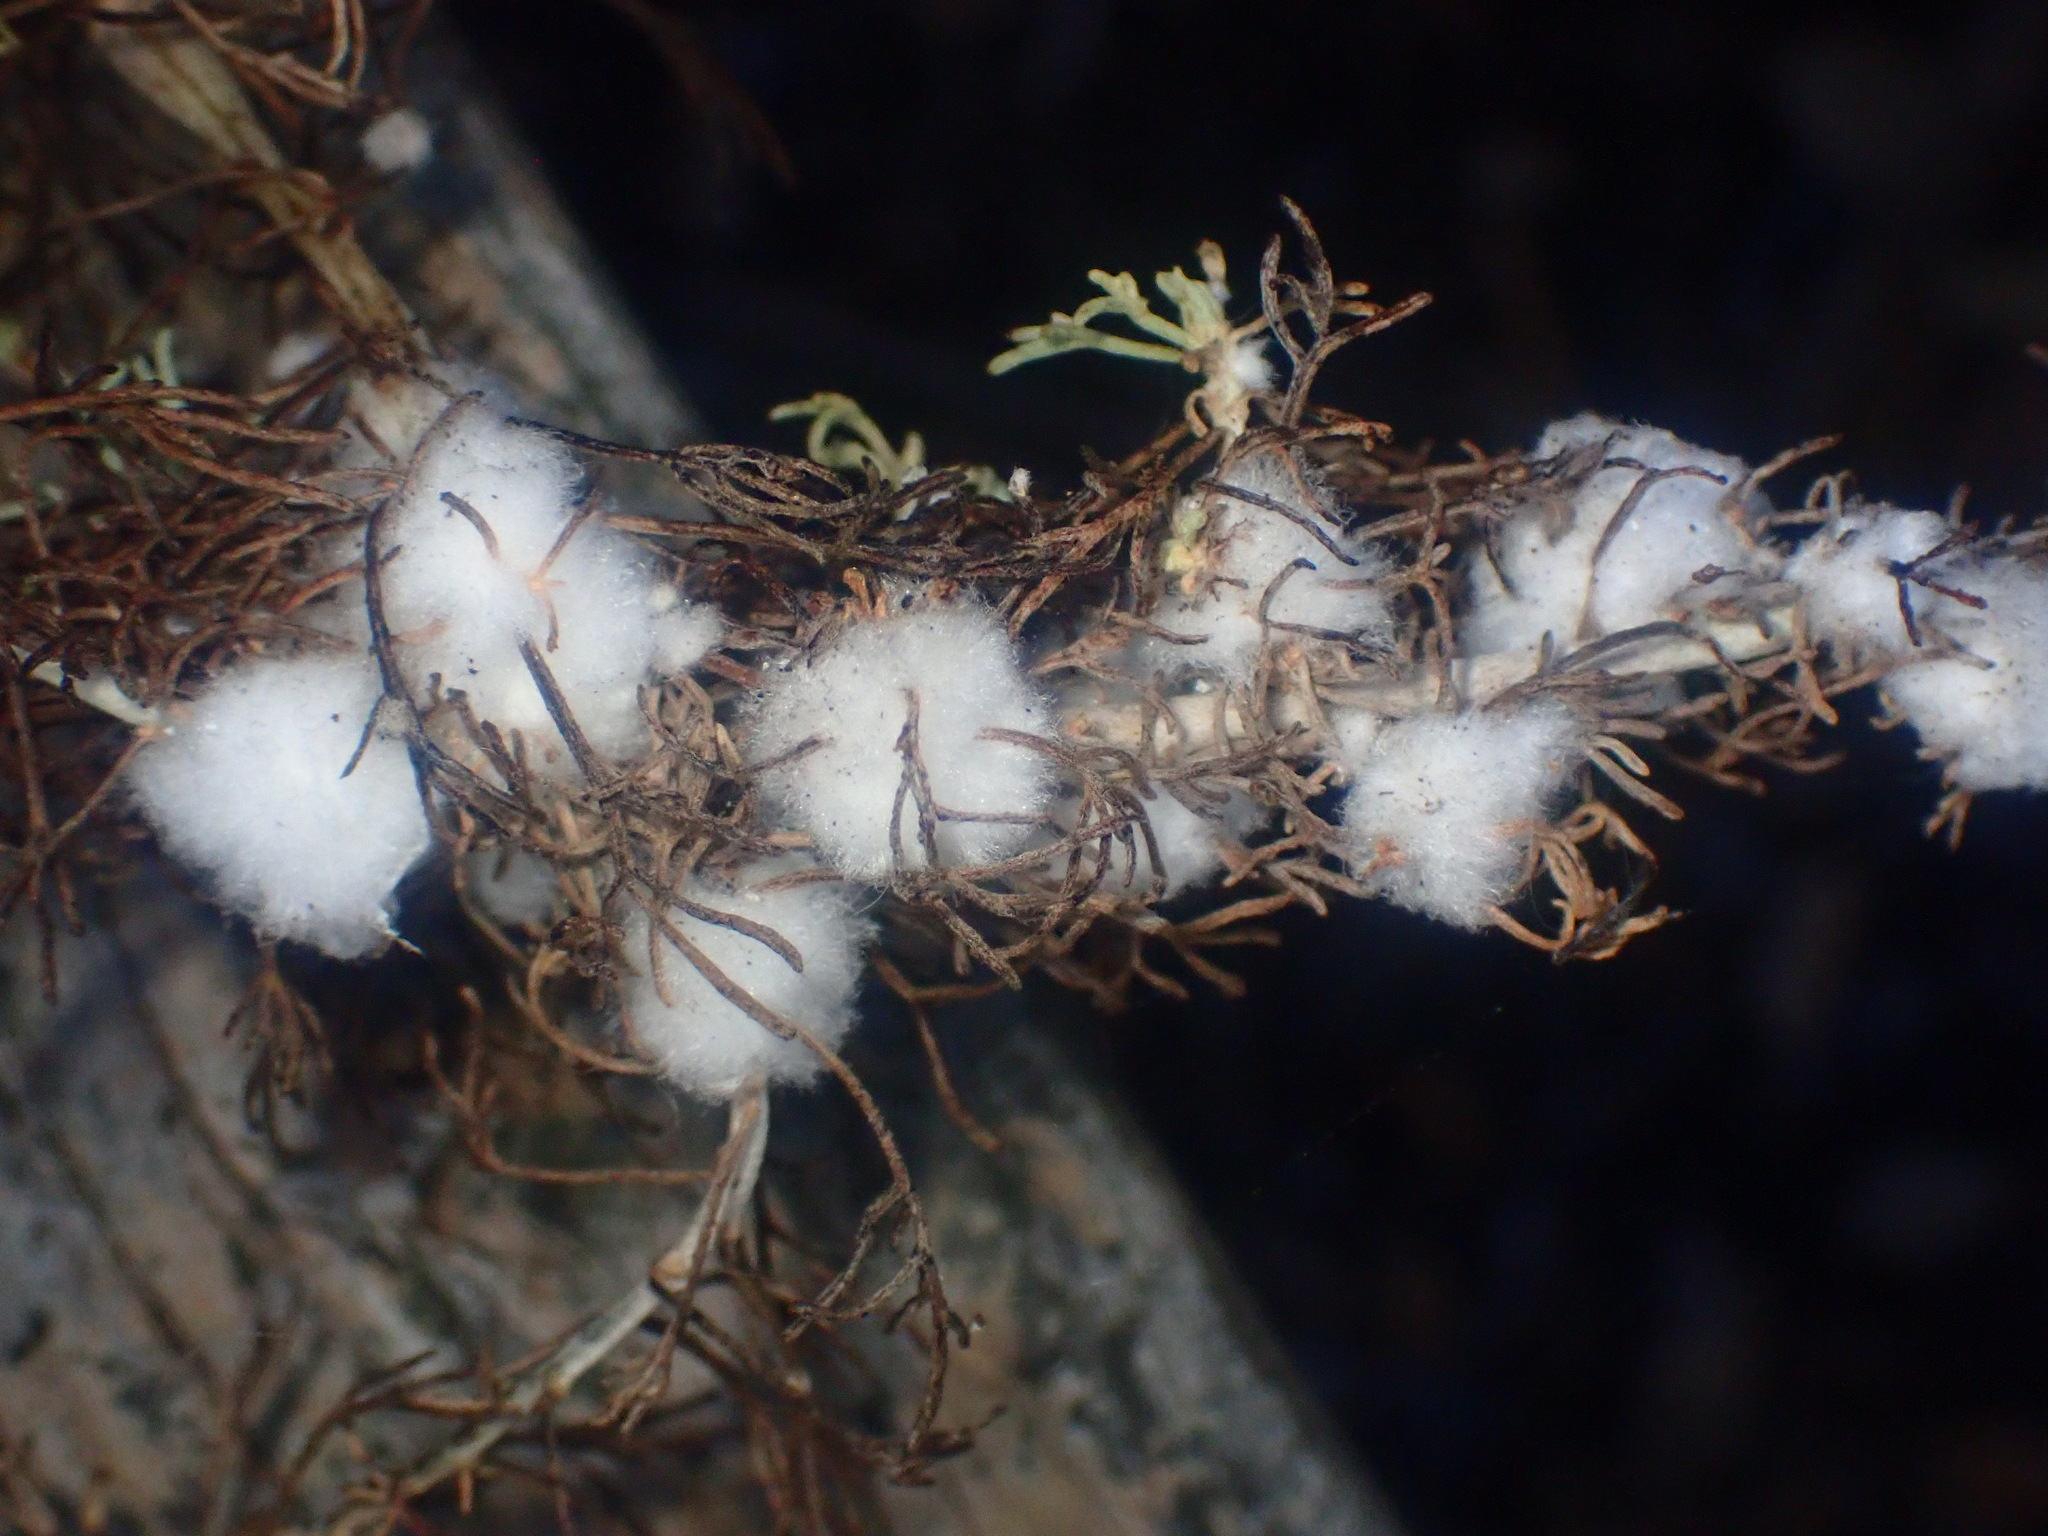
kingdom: Animalia
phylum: Arthropoda
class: Insecta
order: Diptera
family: Cecidomyiidae
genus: Rhopalomyia
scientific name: Rhopalomyia floccosa
